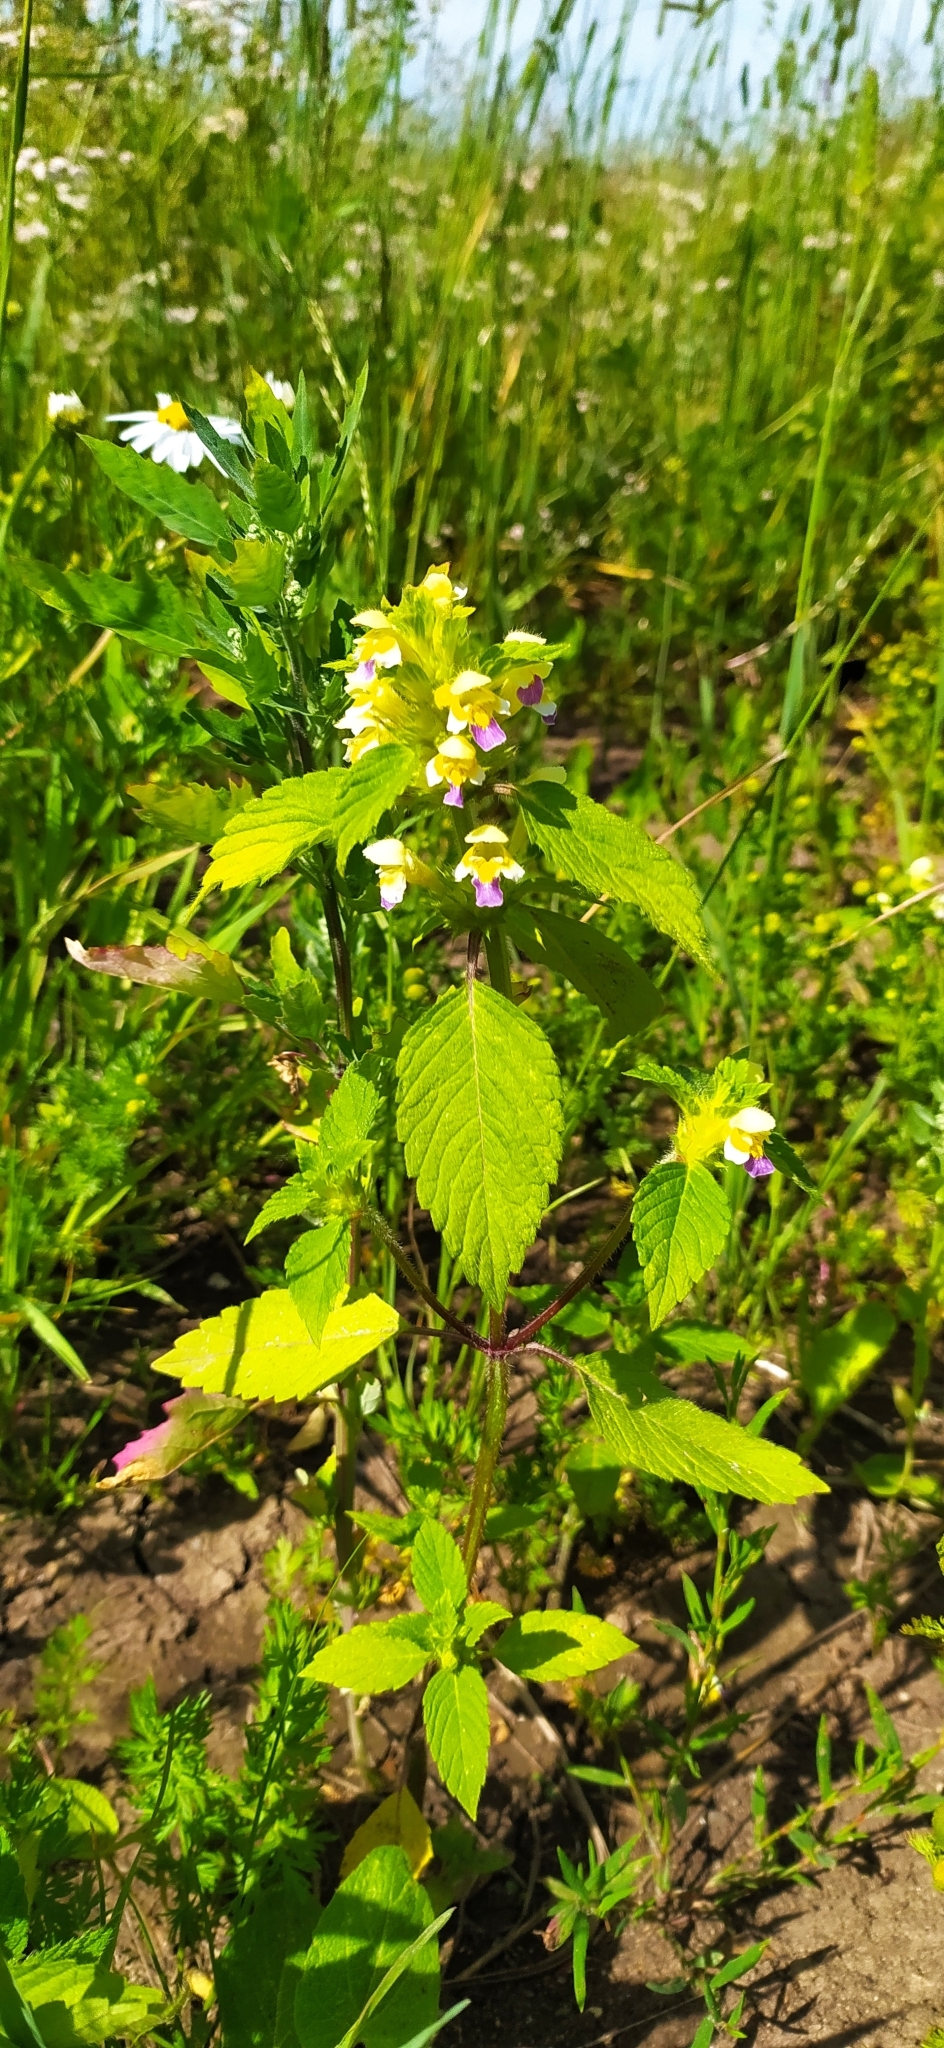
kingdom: Plantae
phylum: Tracheophyta
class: Magnoliopsida
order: Lamiales
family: Lamiaceae
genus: Galeopsis
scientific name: Galeopsis speciosa
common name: Large-flowered hemp-nettle
